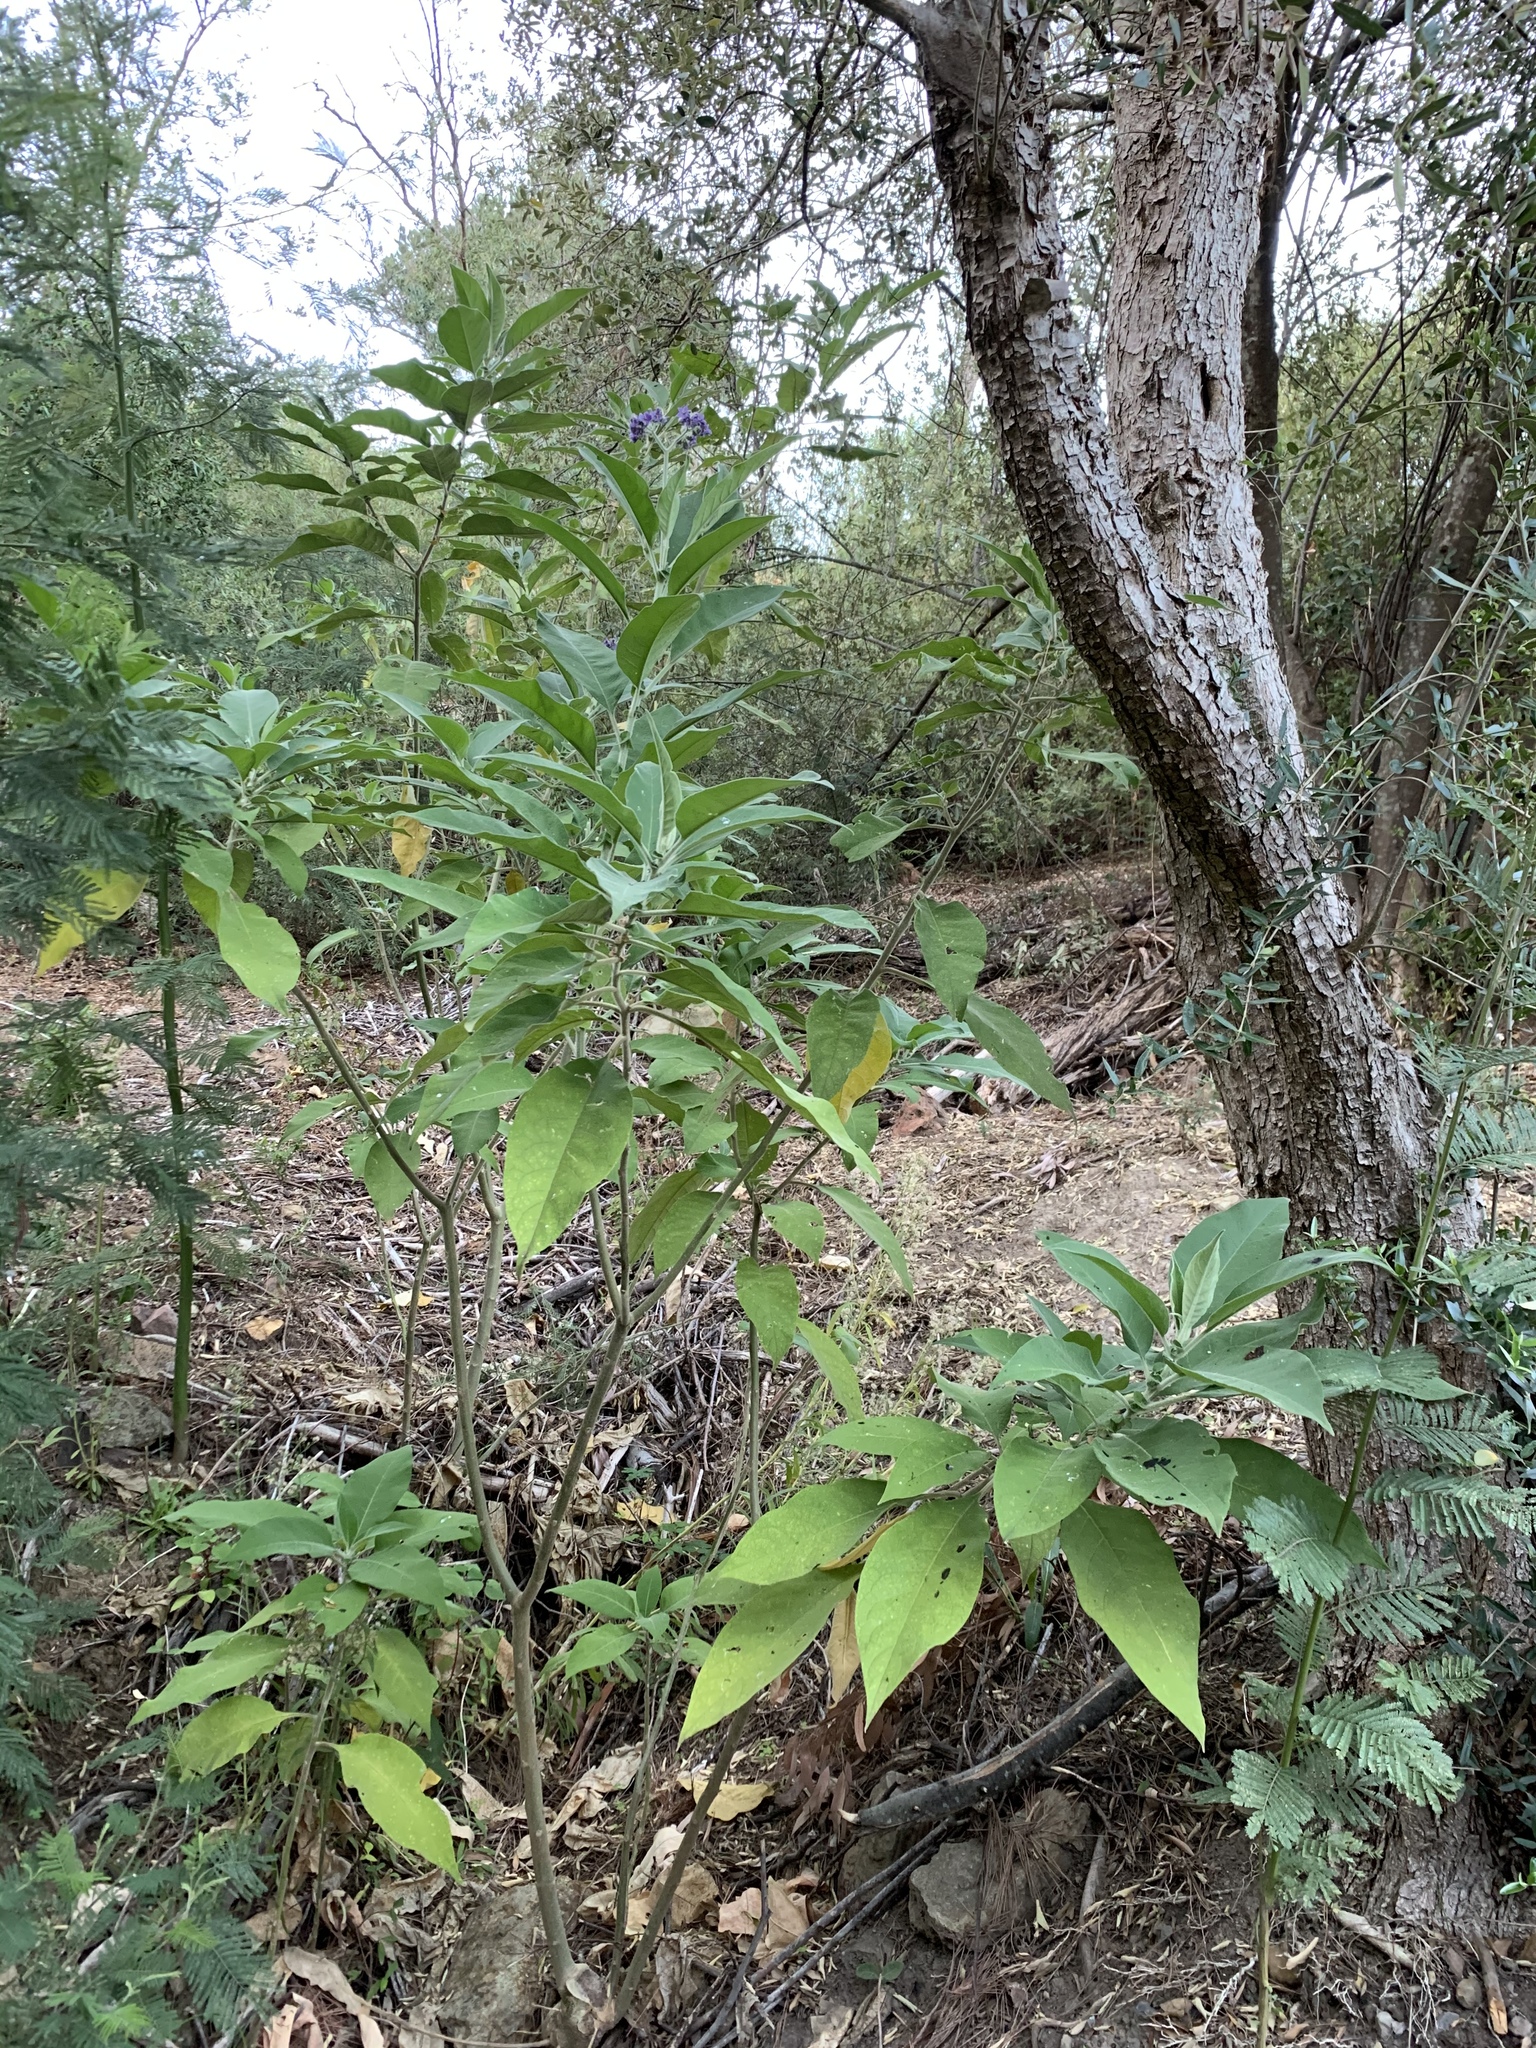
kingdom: Plantae
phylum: Tracheophyta
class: Magnoliopsida
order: Solanales
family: Solanaceae
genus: Solanum
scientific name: Solanum mauritianum
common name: Earleaf nightshade
